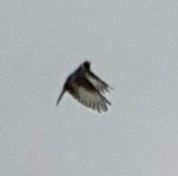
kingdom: Animalia
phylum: Chordata
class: Aves
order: Passeriformes
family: Fringillidae
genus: Carduelis
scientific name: Carduelis carduelis
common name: European goldfinch
